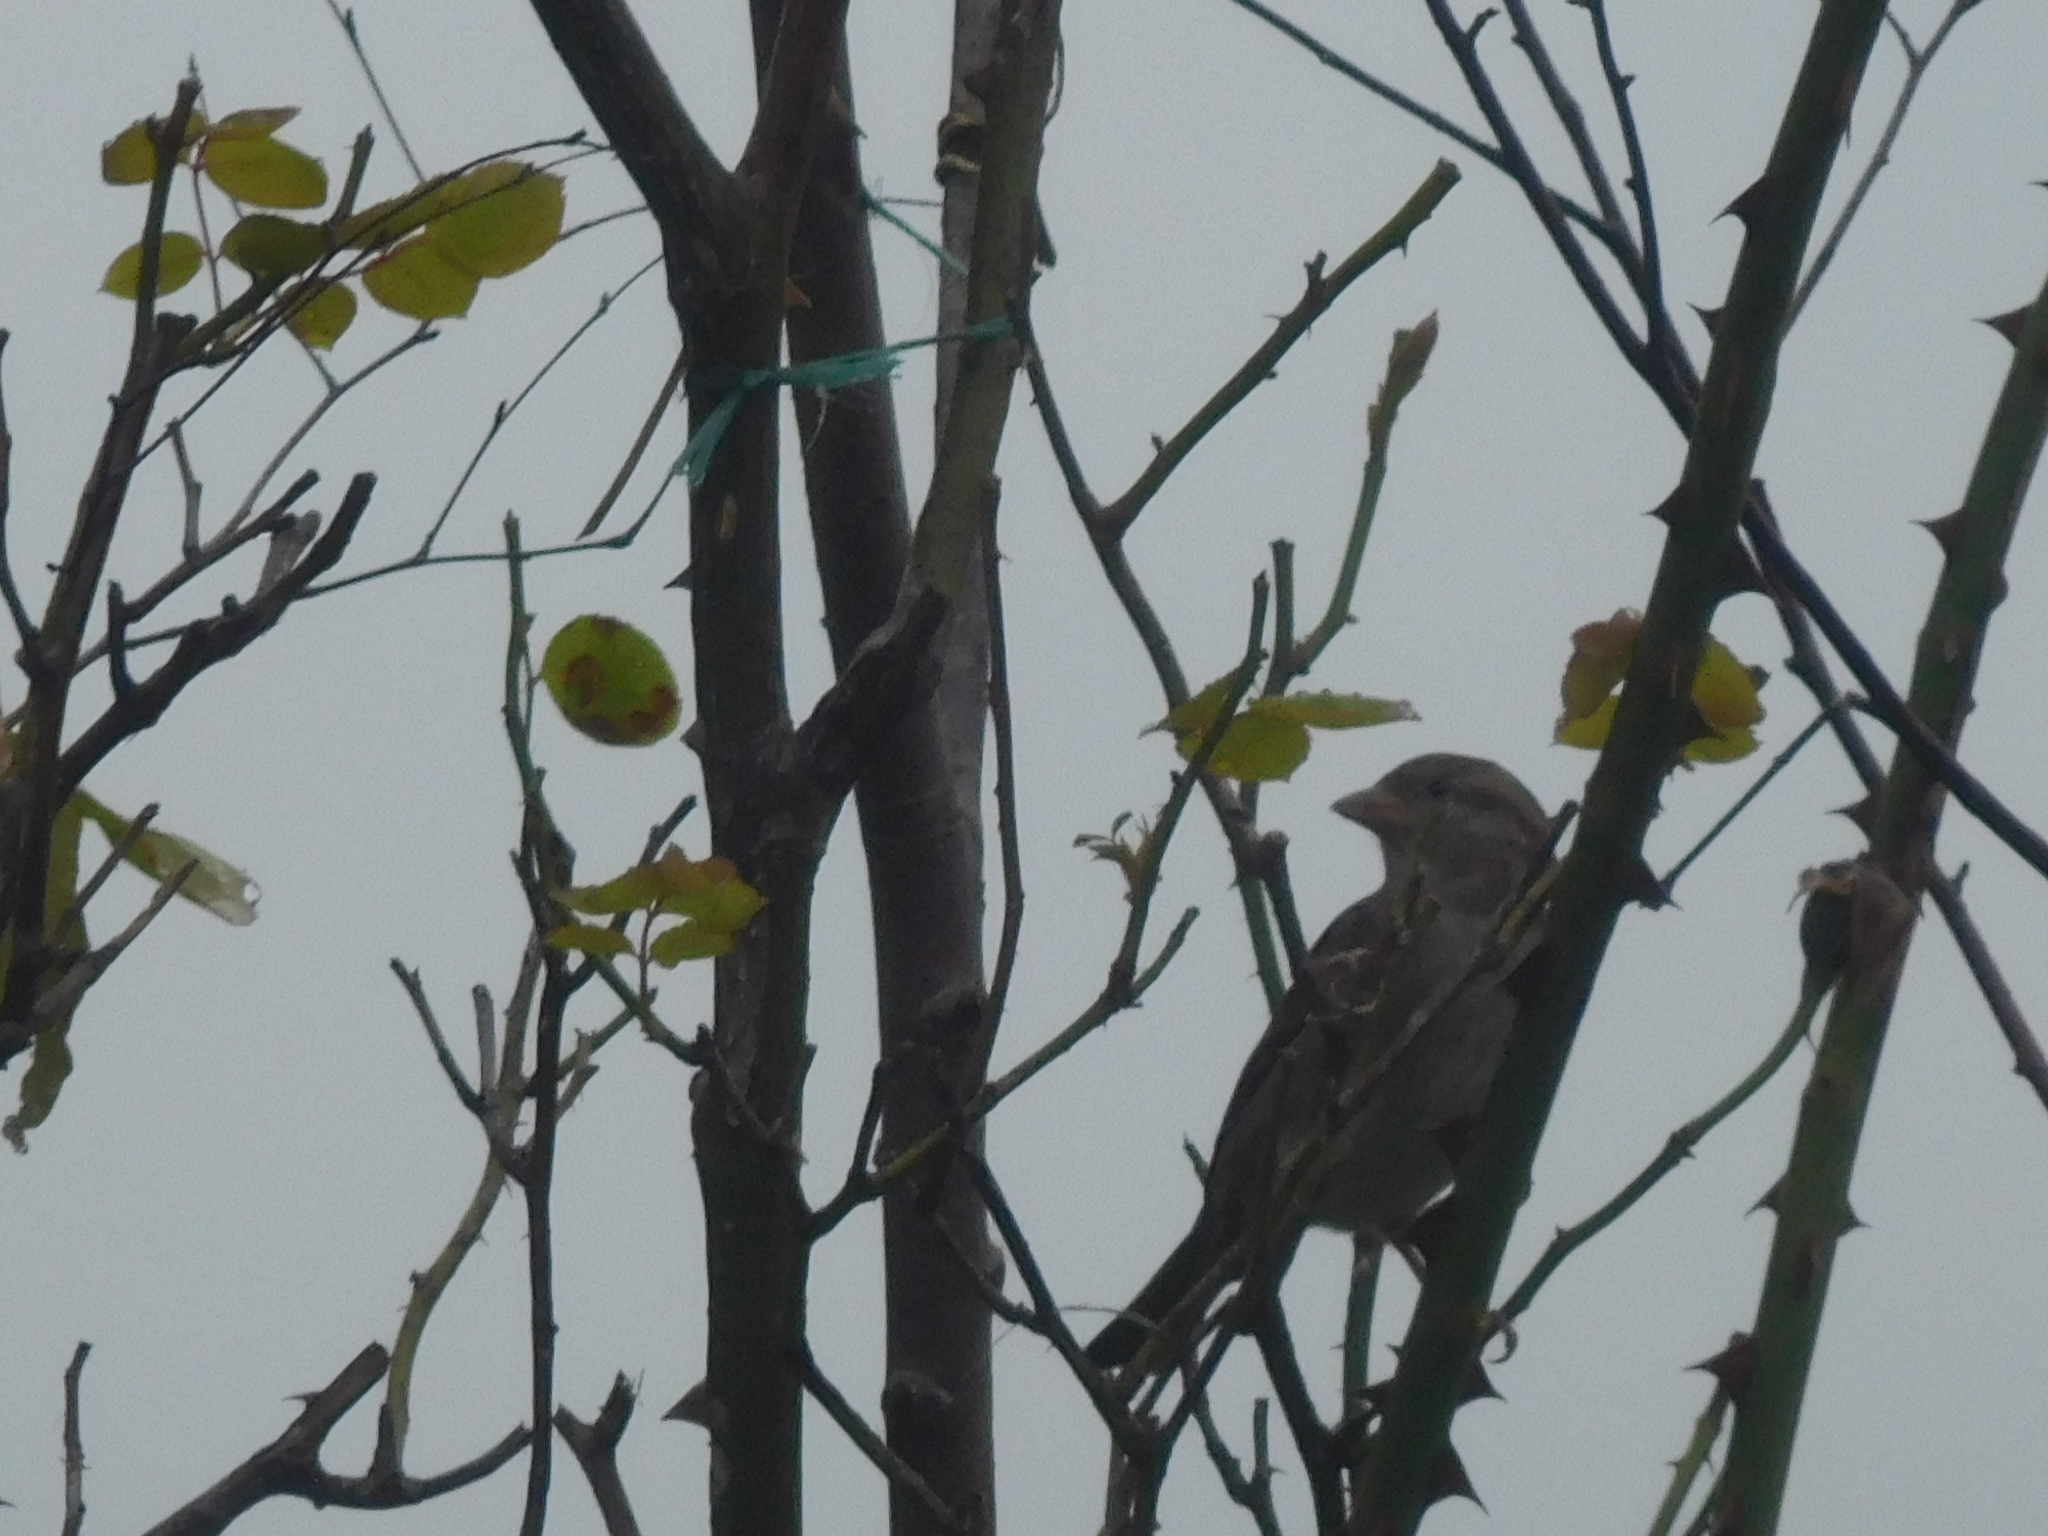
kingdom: Animalia
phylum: Chordata
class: Aves
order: Passeriformes
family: Passeridae
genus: Passer
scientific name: Passer domesticus
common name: House sparrow
